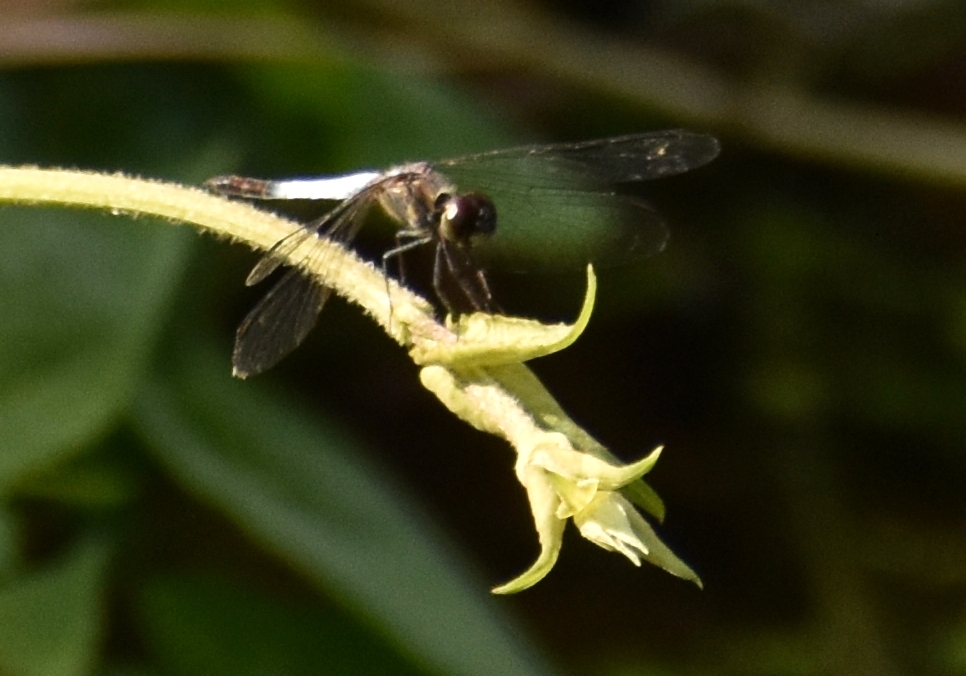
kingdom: Animalia
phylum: Arthropoda
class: Insecta
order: Odonata
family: Libellulidae
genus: Brachydiplax
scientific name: Brachydiplax sobrina
